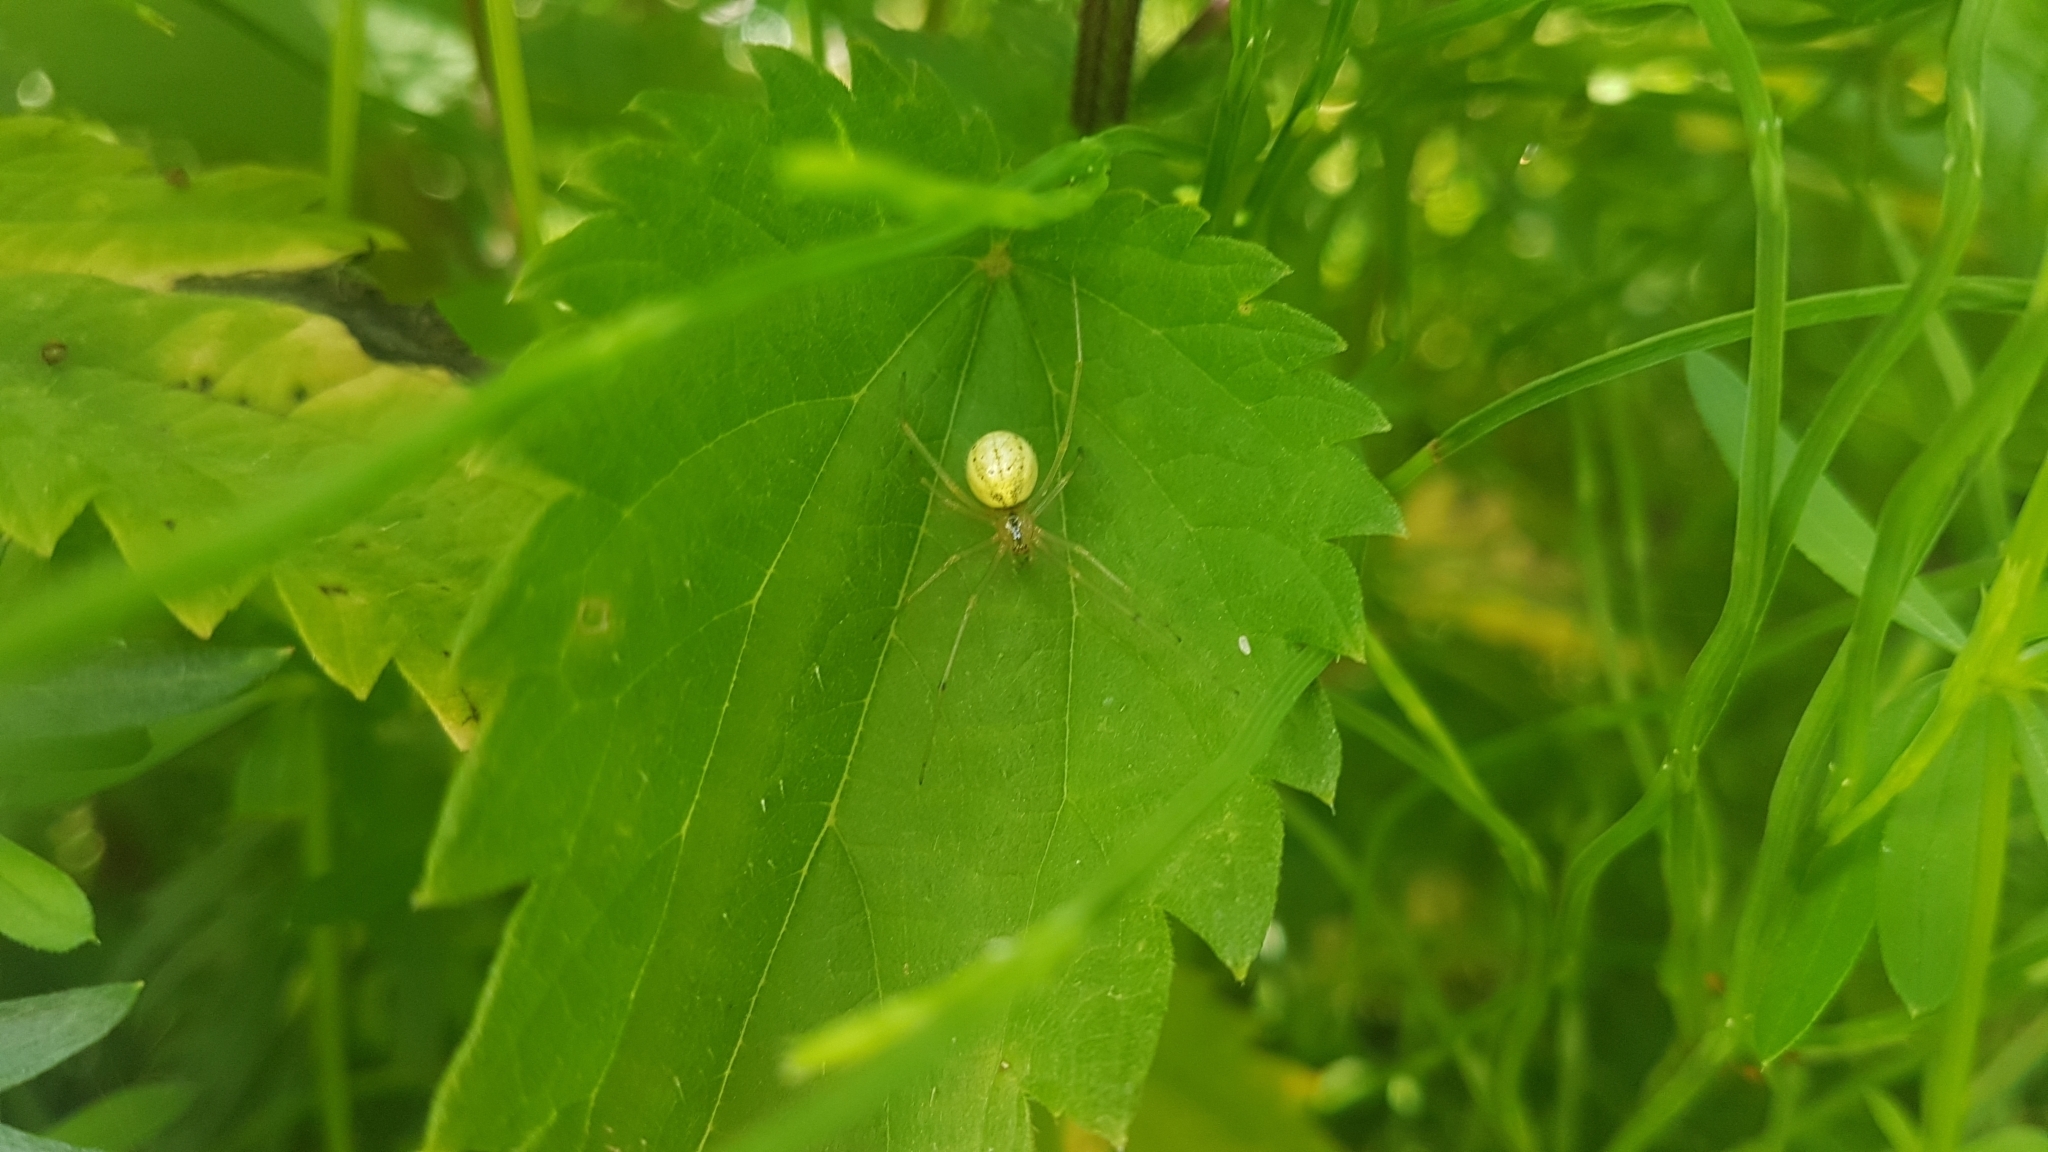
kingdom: Animalia
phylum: Arthropoda
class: Arachnida
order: Araneae
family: Theridiidae
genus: Enoplognatha
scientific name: Enoplognatha ovata
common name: Common candy-striped spider
